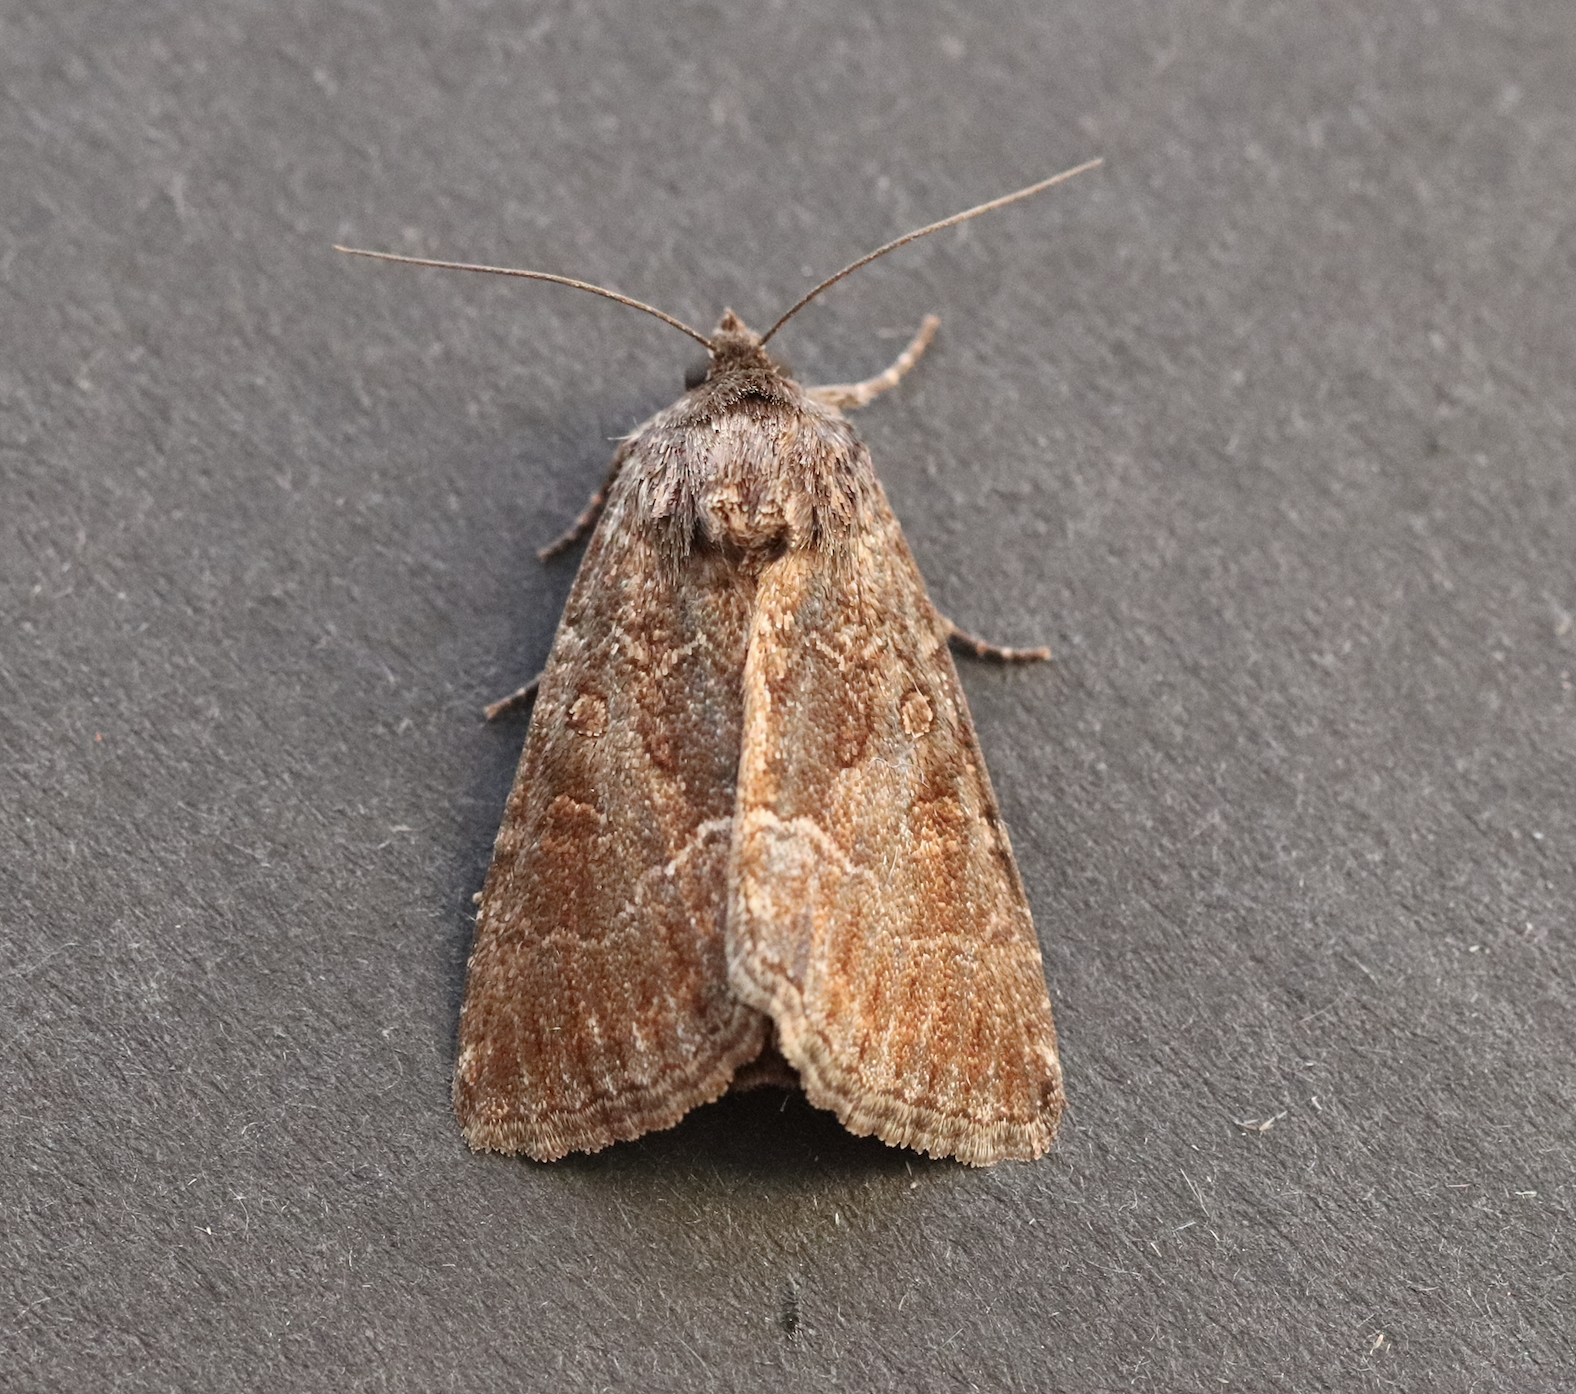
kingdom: Animalia
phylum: Arthropoda
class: Insecta
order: Lepidoptera
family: Noctuidae
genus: Thalpophila
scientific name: Thalpophila matura
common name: Straw underwing
